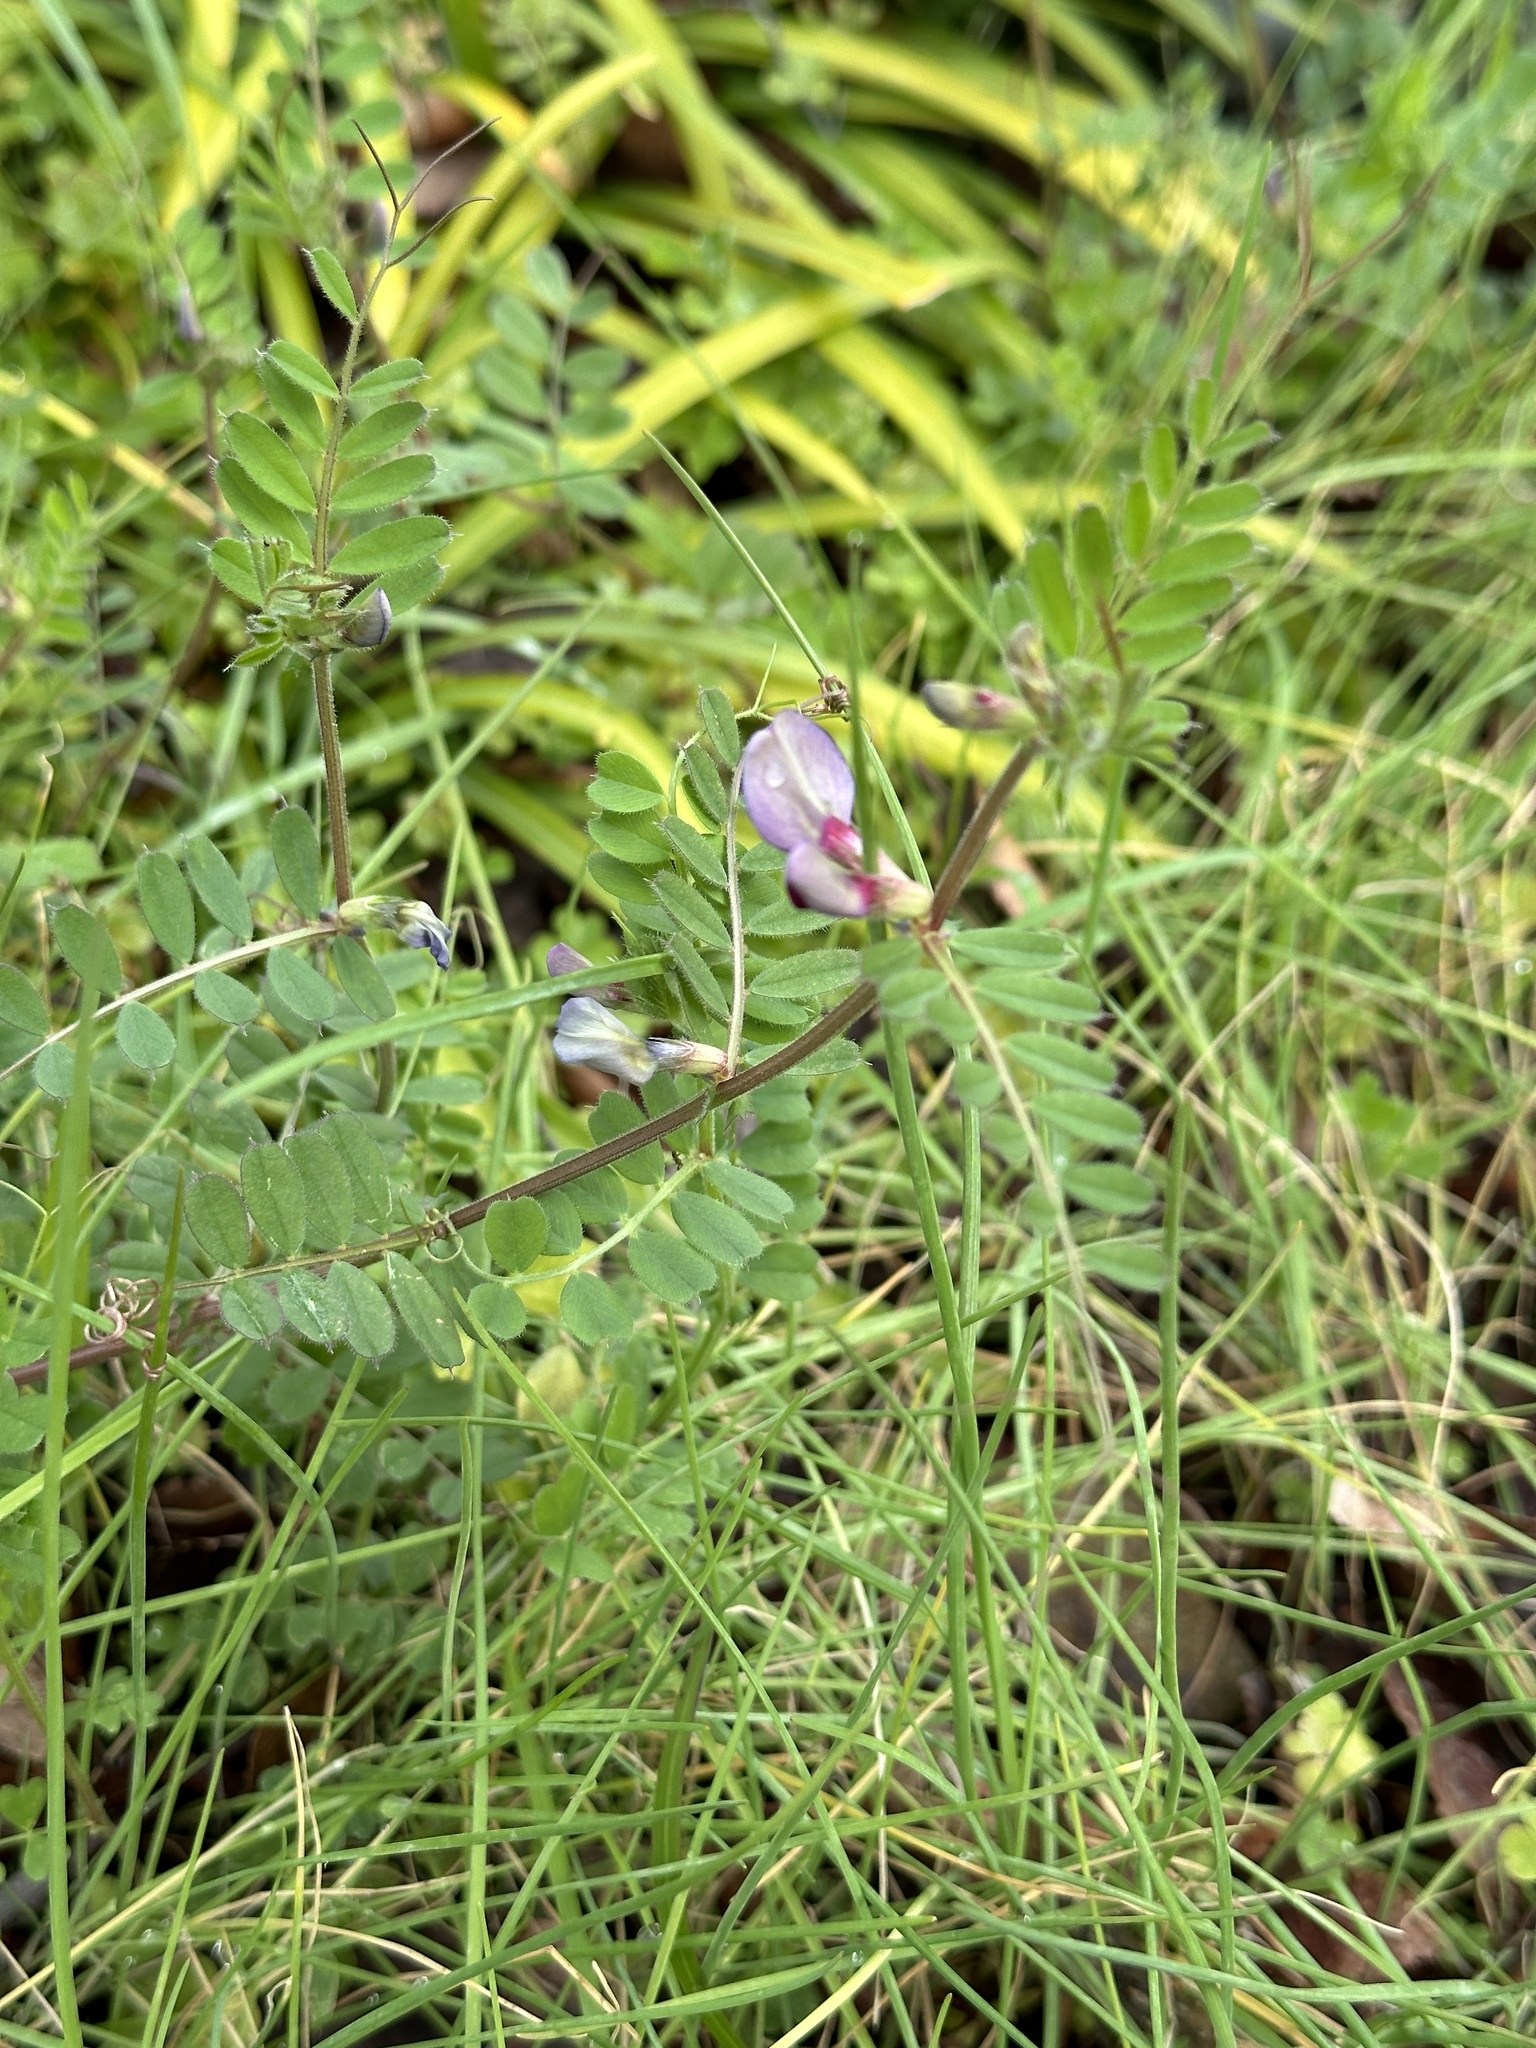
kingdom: Plantae
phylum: Tracheophyta
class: Magnoliopsida
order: Fabales
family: Fabaceae
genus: Vicia
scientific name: Vicia sativa
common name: Garden vetch
